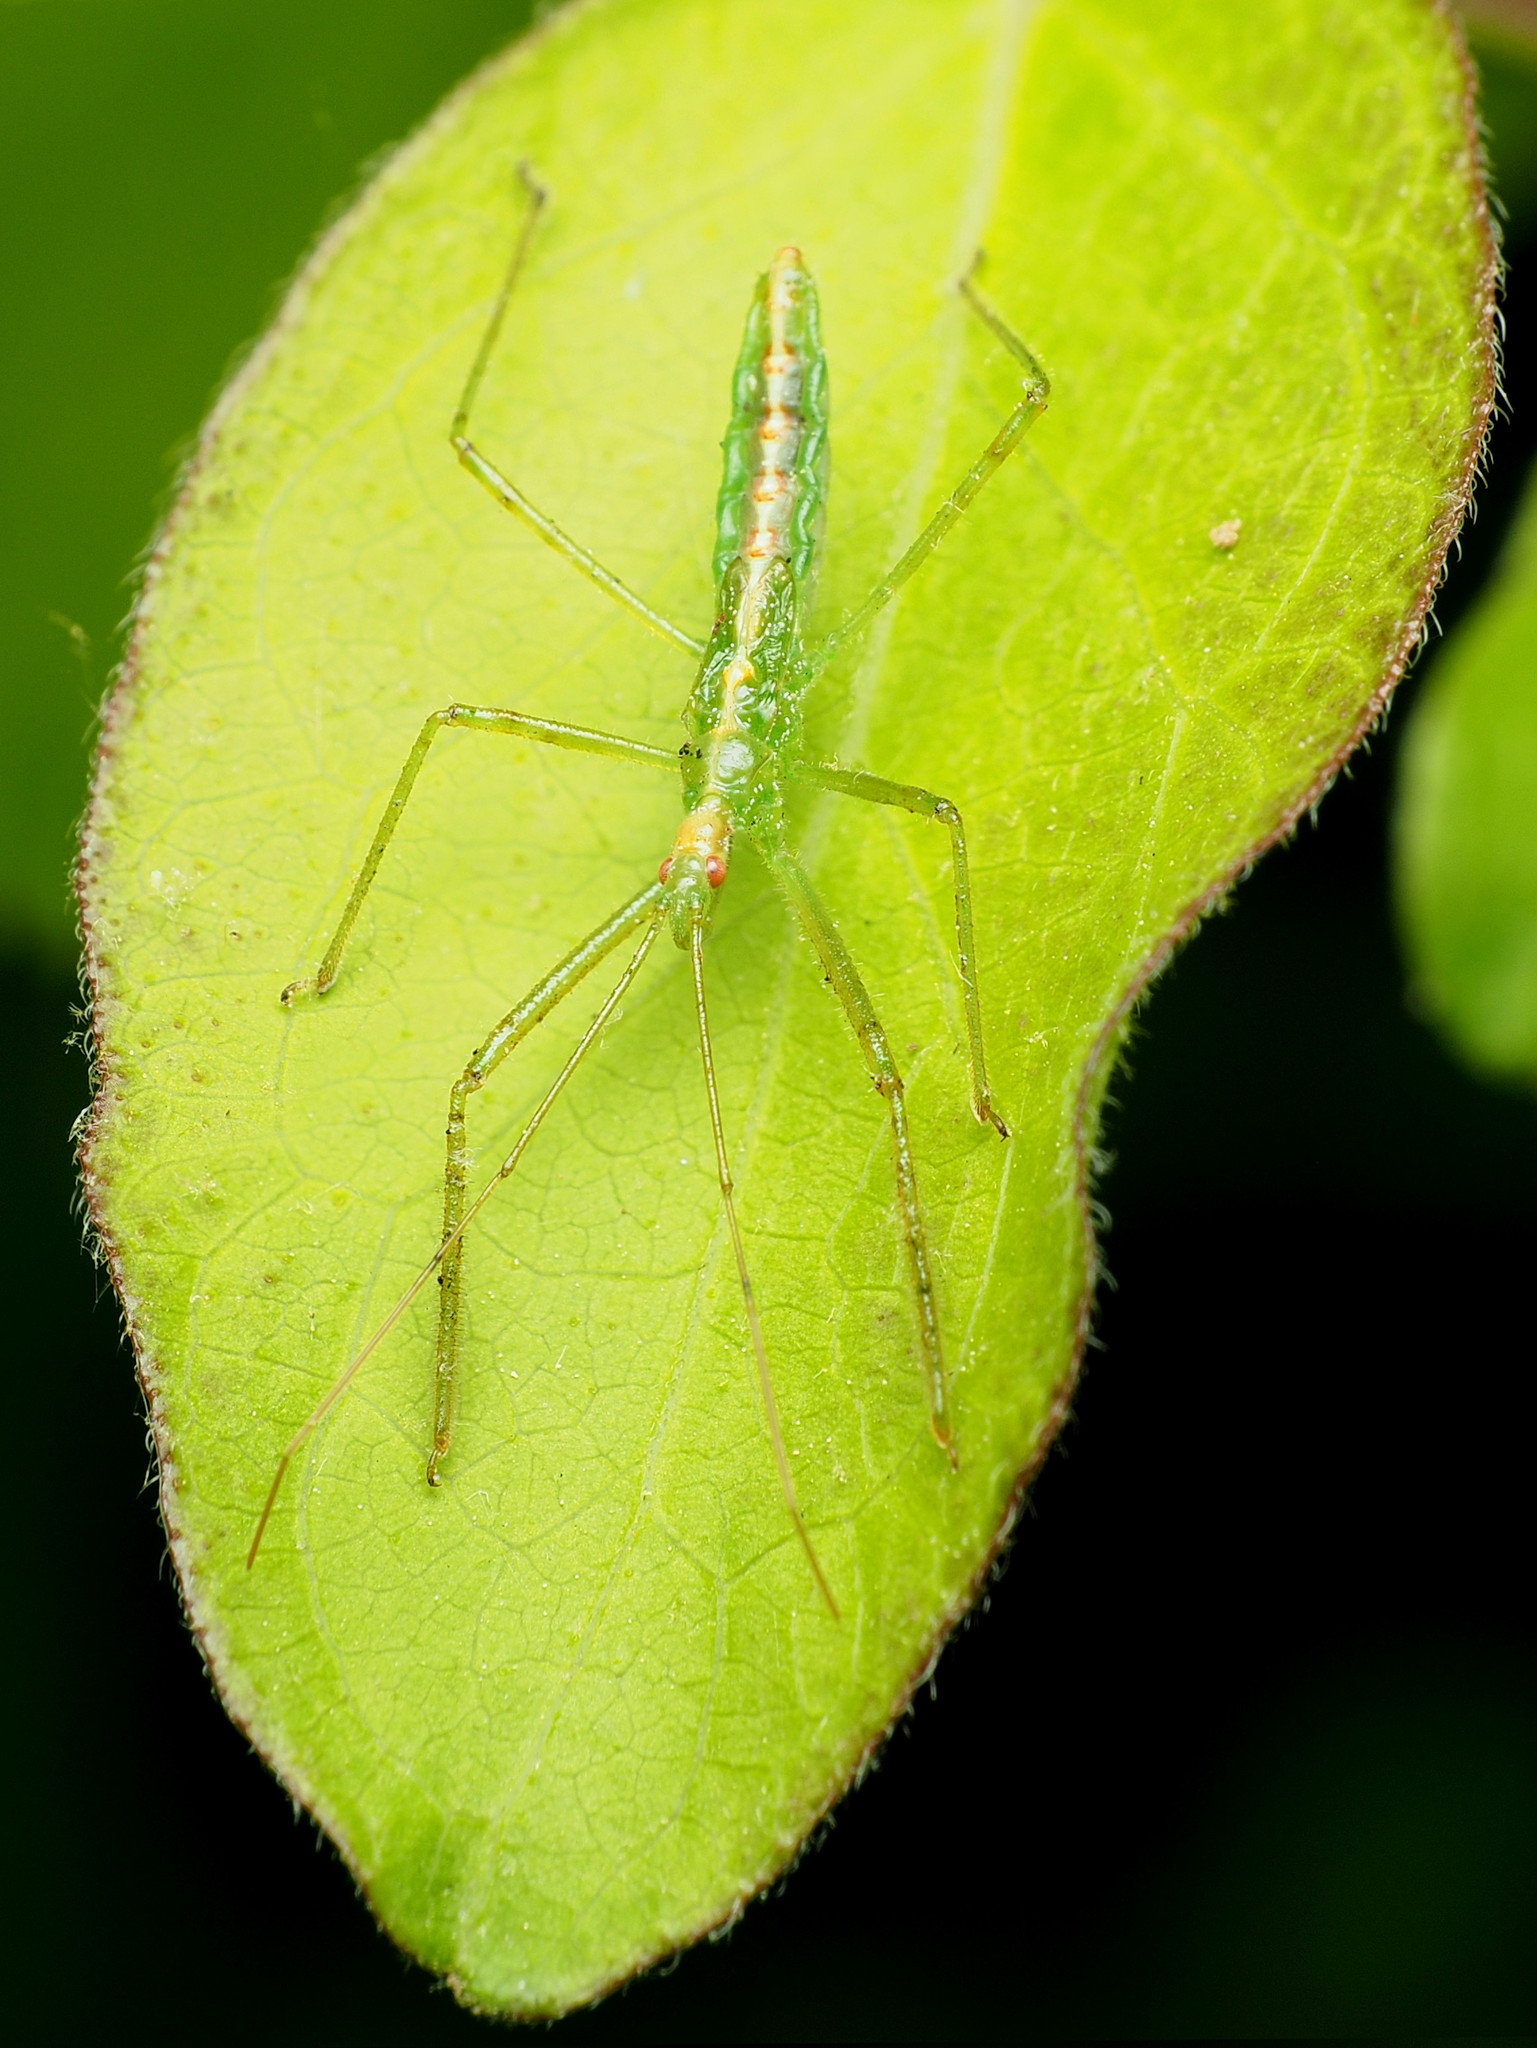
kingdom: Animalia
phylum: Arthropoda
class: Insecta
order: Hemiptera
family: Reduviidae
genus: Zelus
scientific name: Zelus luridus
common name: Pale green assassin bug
